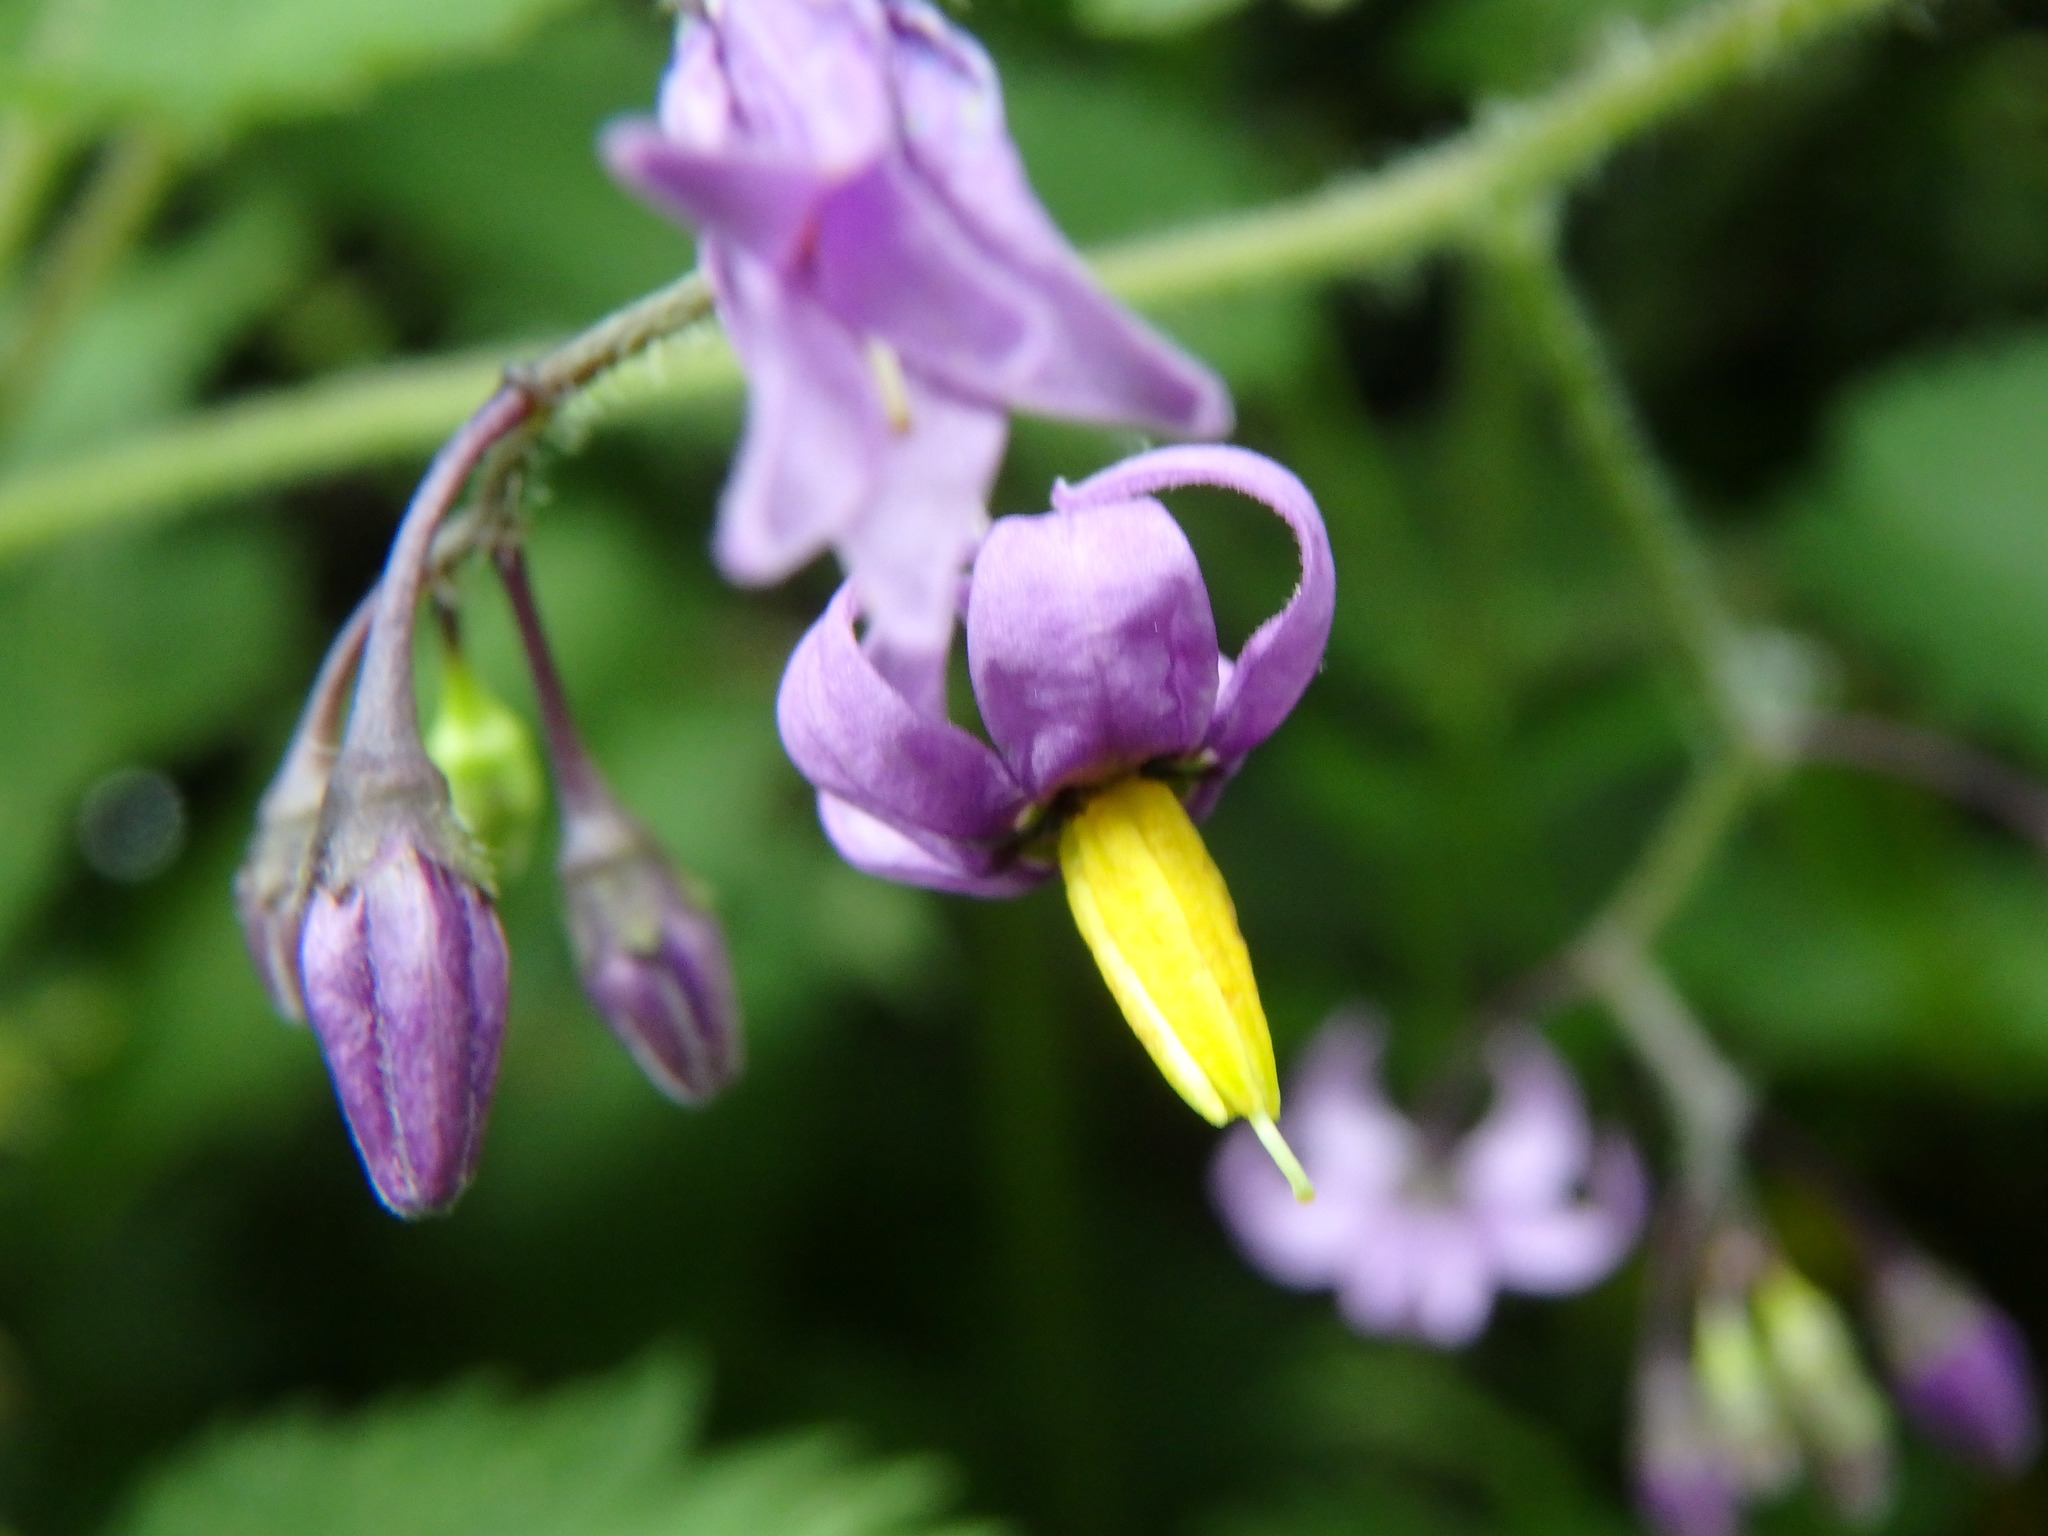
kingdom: Plantae
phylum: Tracheophyta
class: Magnoliopsida
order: Solanales
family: Solanaceae
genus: Solanum
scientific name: Solanum dulcamara
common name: Climbing nightshade
